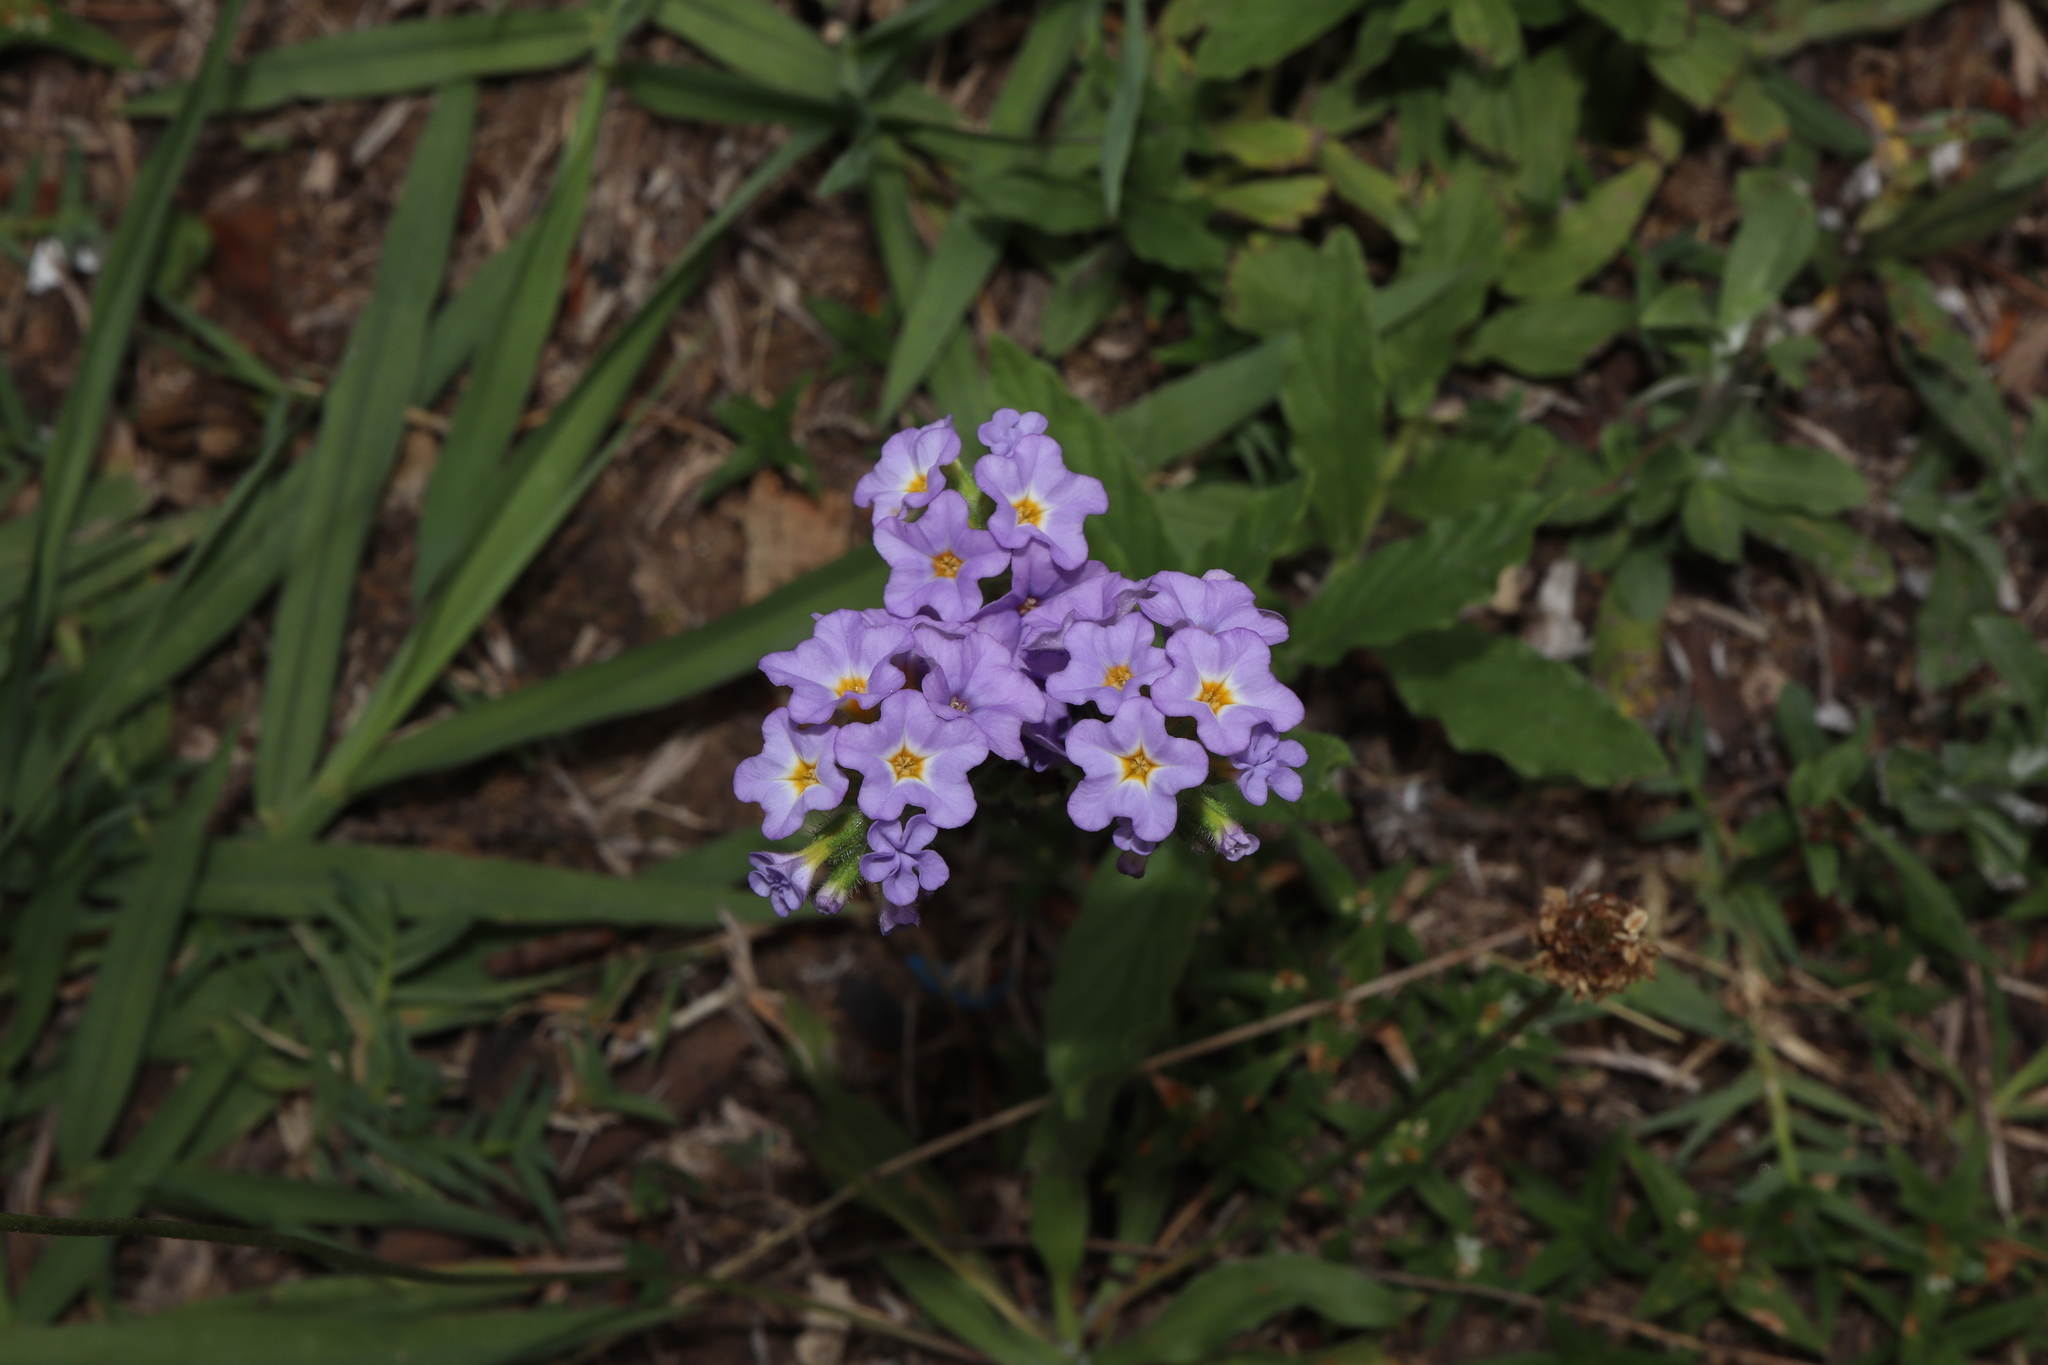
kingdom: Plantae
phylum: Tracheophyta
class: Magnoliopsida
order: Boraginales
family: Heliotropiaceae
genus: Heliotropium
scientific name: Heliotropium amplexicaule
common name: Clasping heliotrope
